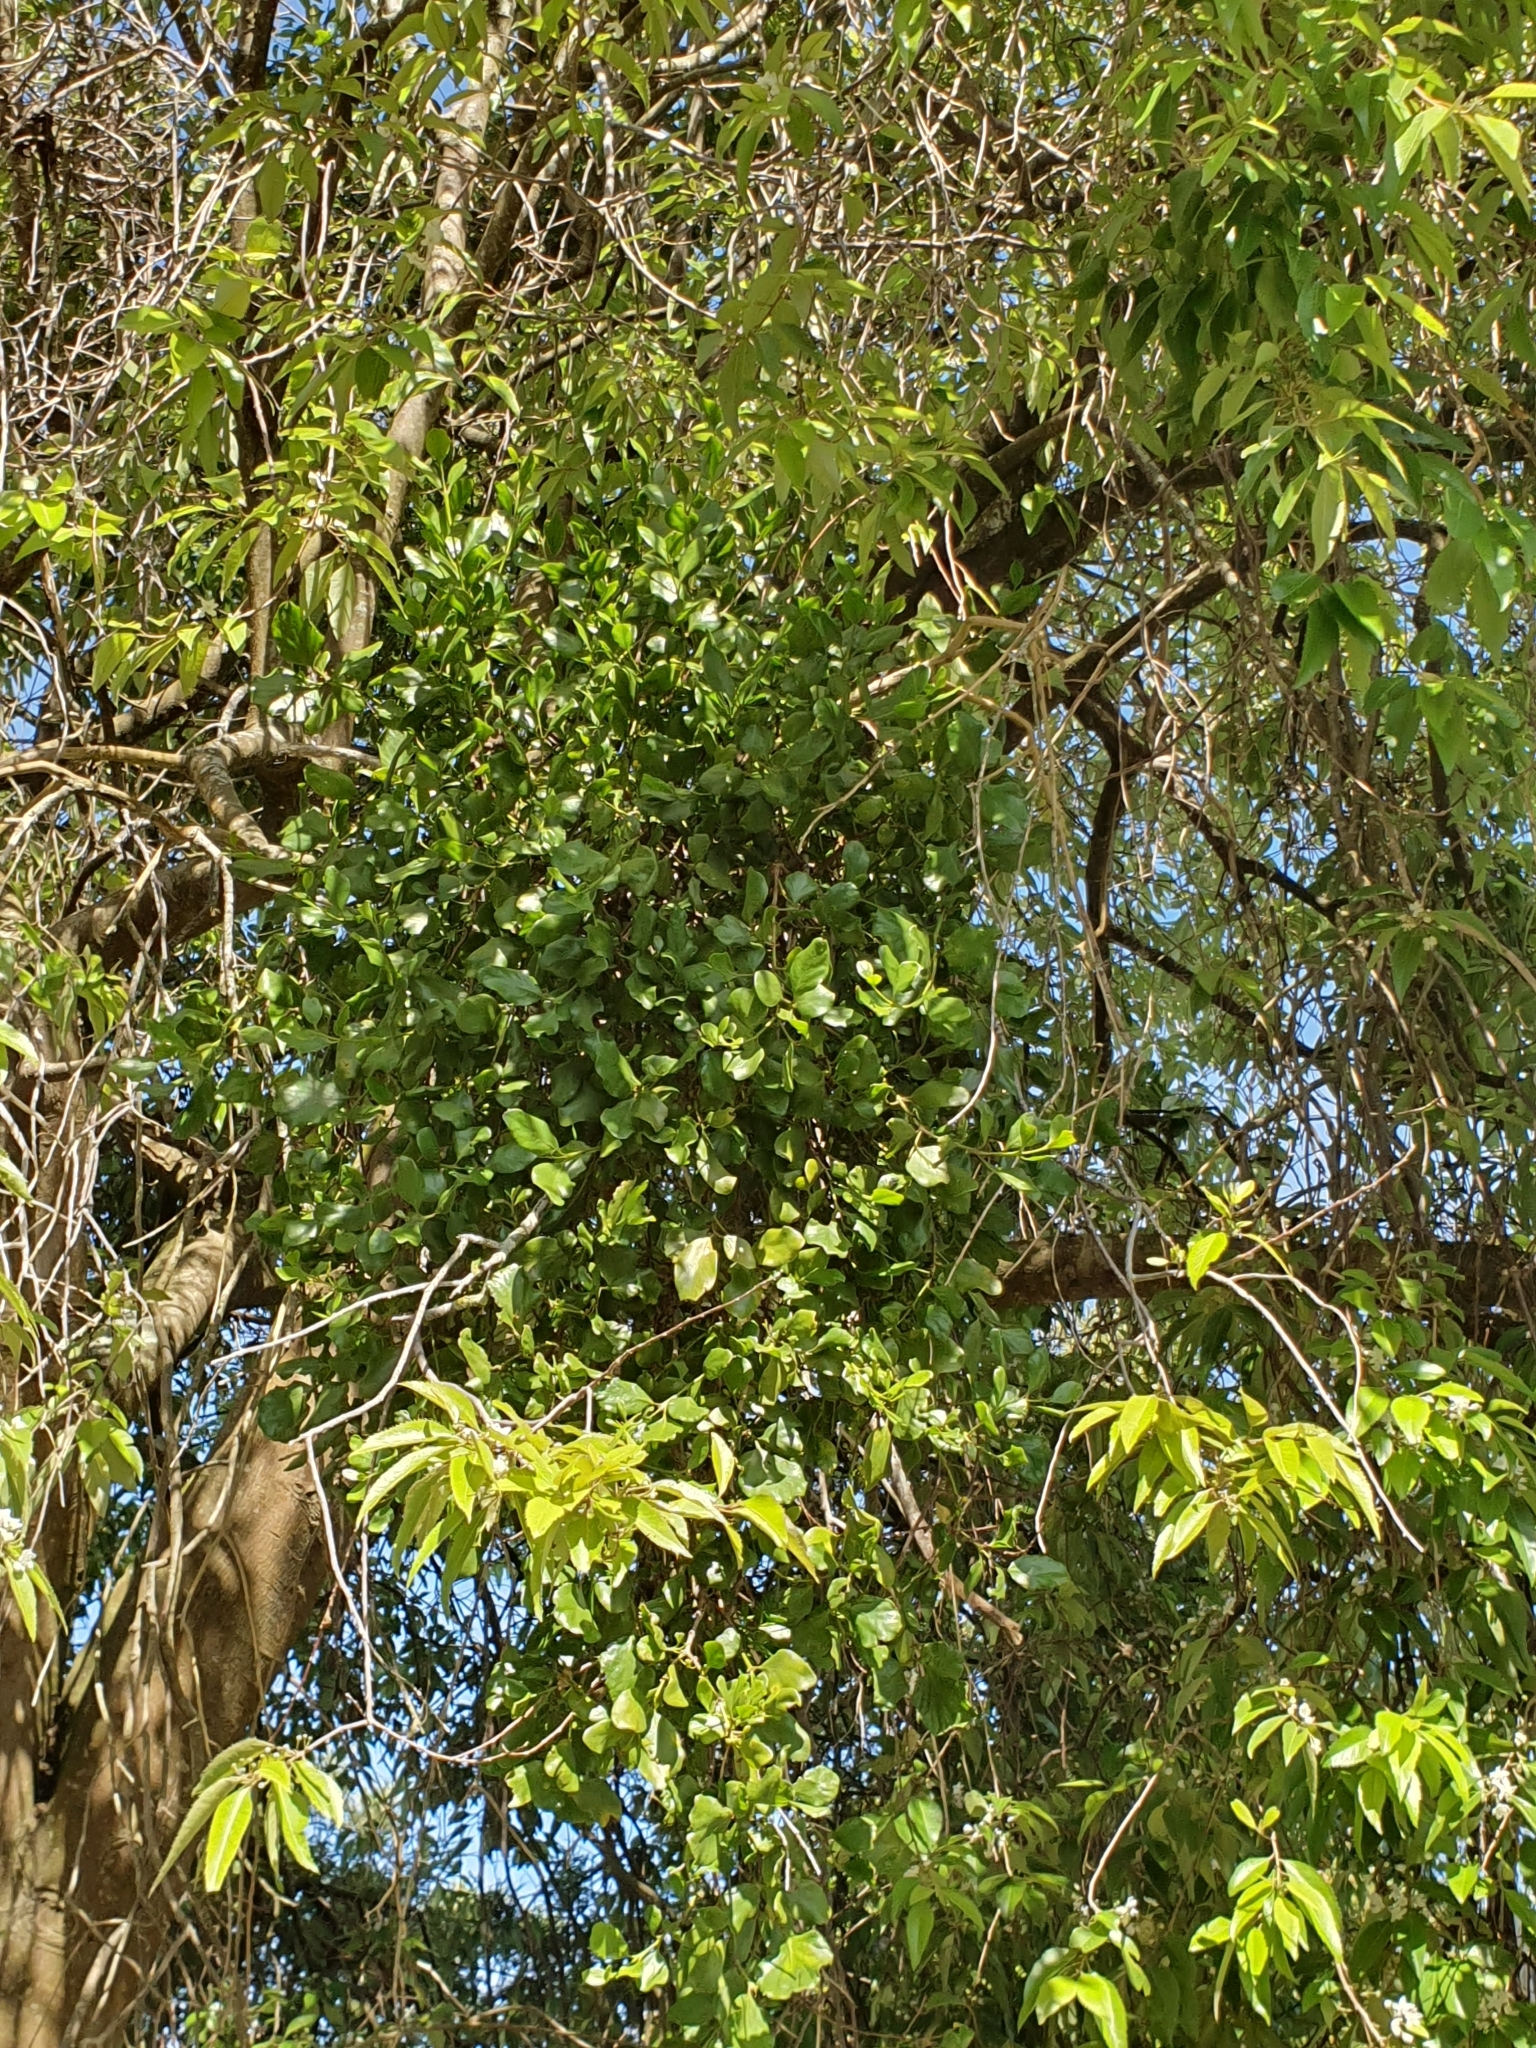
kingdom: Plantae
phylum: Tracheophyta
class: Magnoliopsida
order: Santalales
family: Loranthaceae
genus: Ileostylus
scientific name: Ileostylus micranthus
